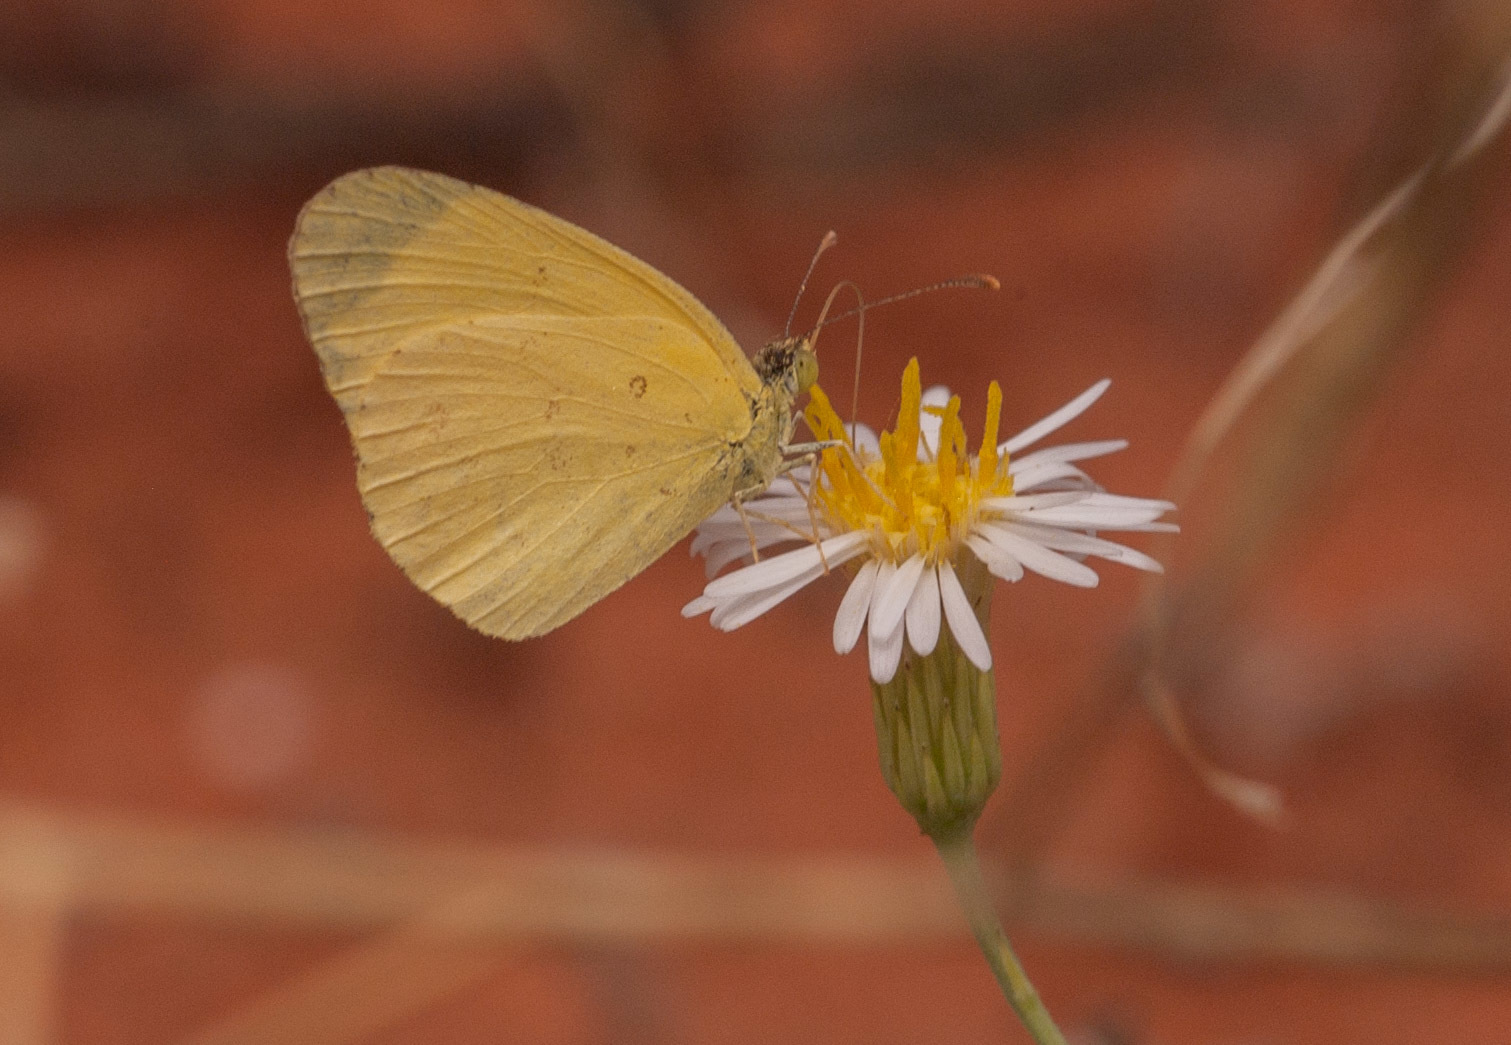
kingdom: Animalia
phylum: Arthropoda
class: Insecta
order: Lepidoptera
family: Pieridae
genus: Eurema
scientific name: Eurema smilax
